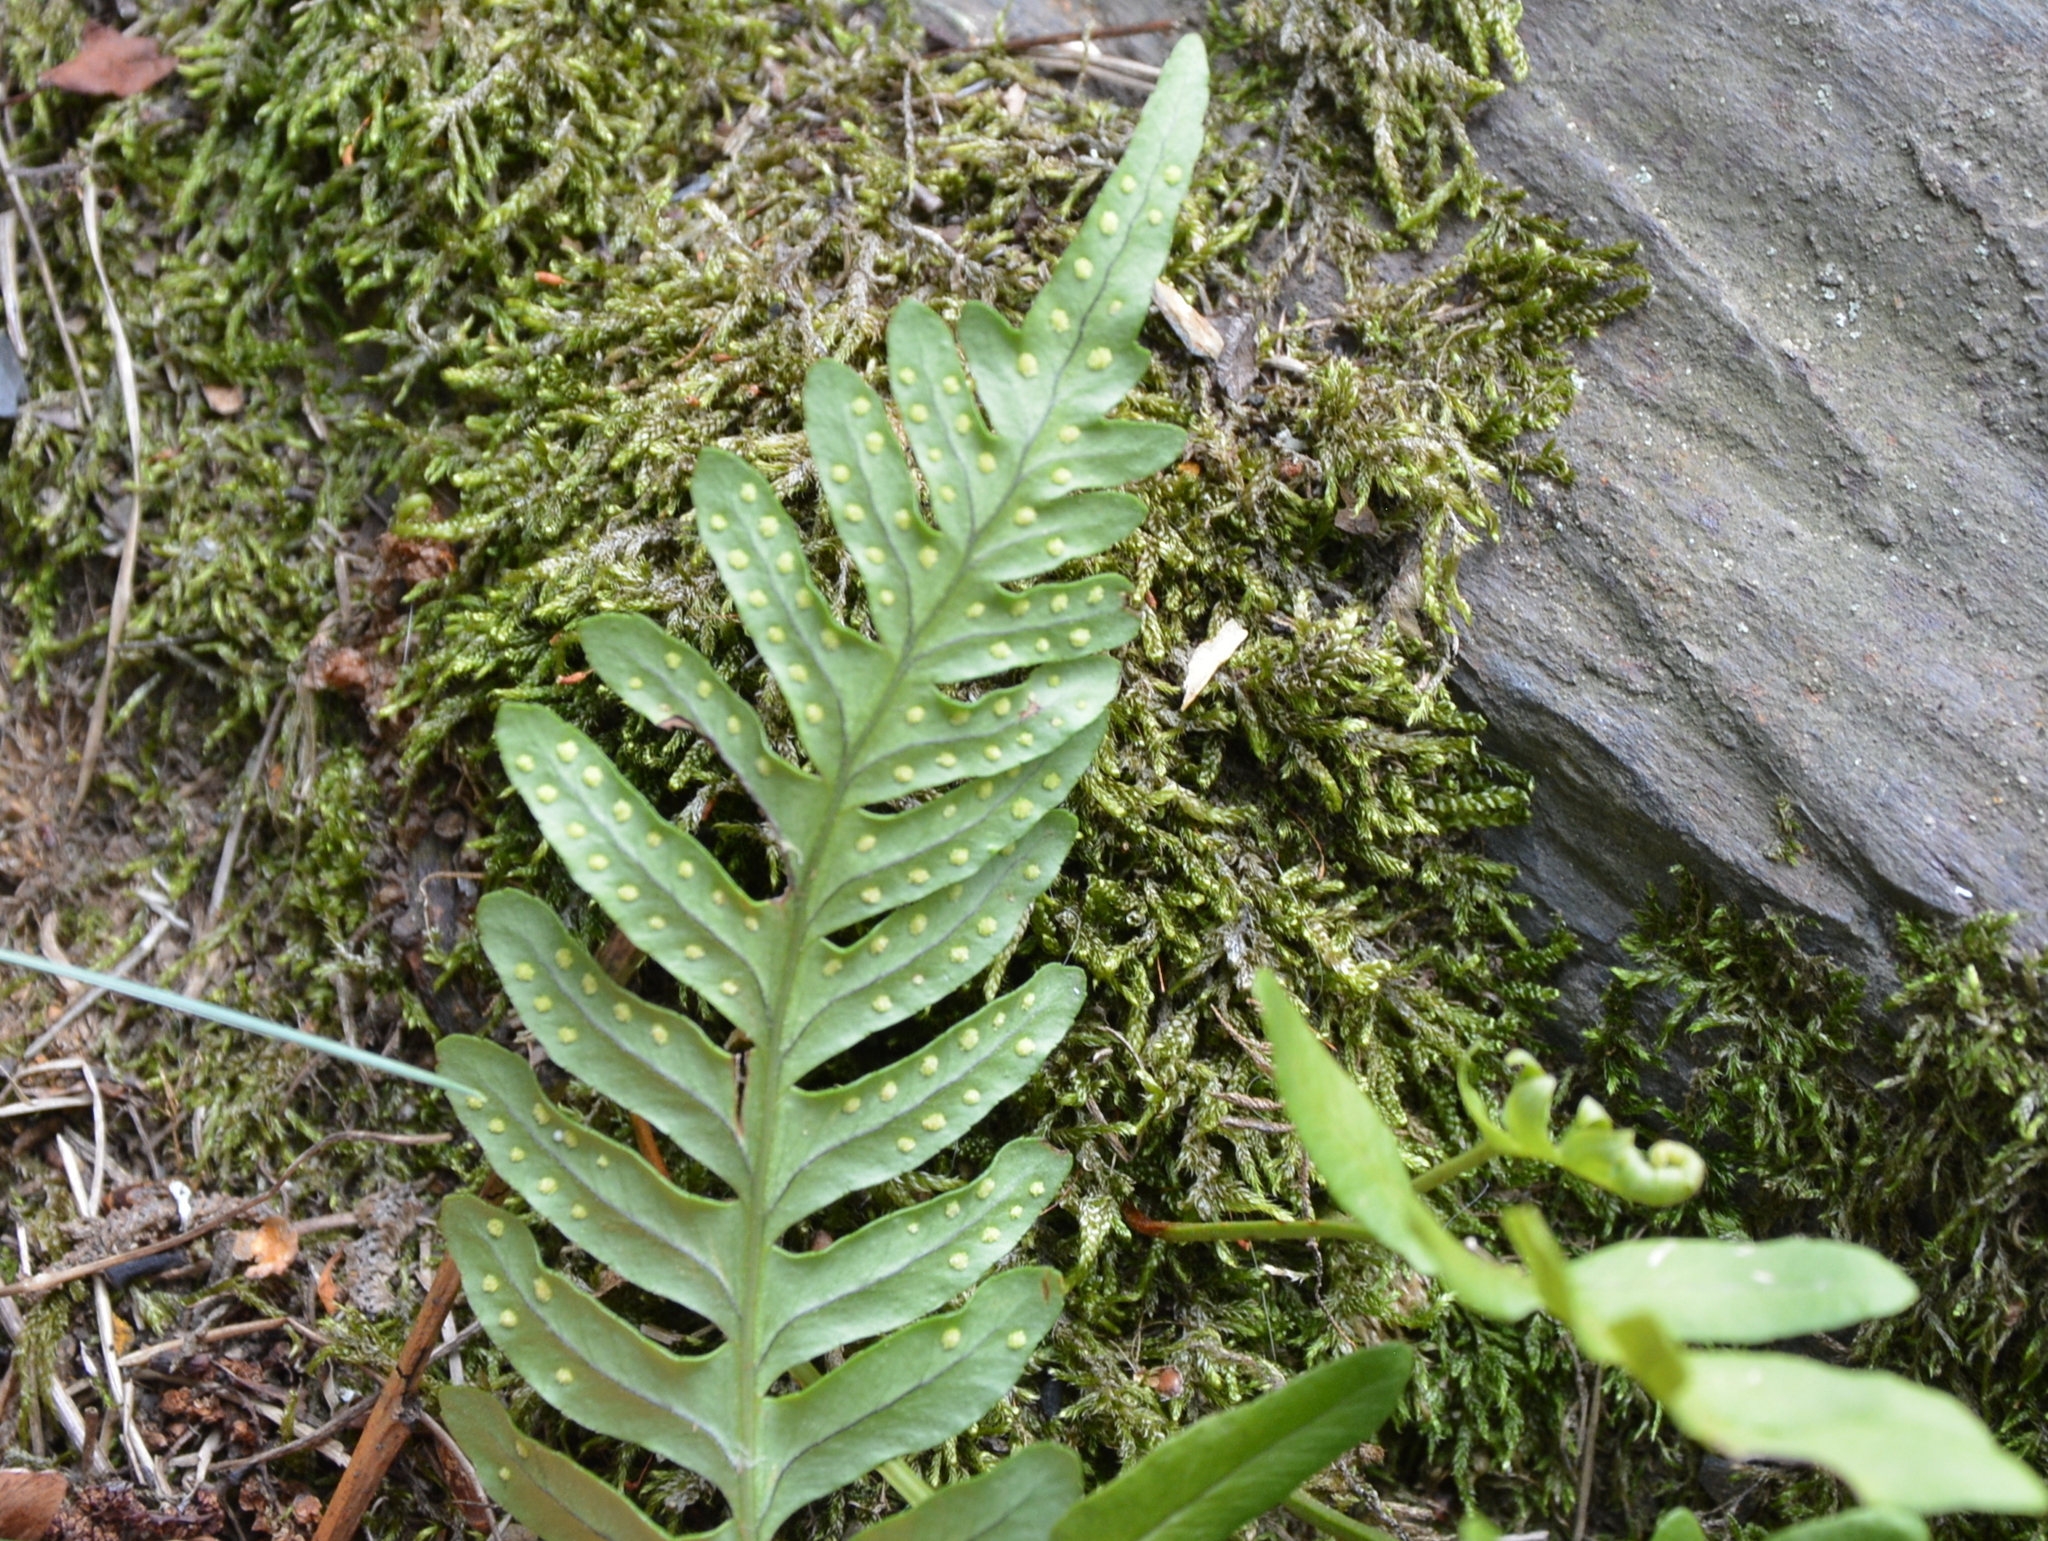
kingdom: Plantae
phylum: Tracheophyta
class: Polypodiopsida
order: Polypodiales
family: Polypodiaceae
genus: Polypodium
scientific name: Polypodium vulgare
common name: Common polypody
